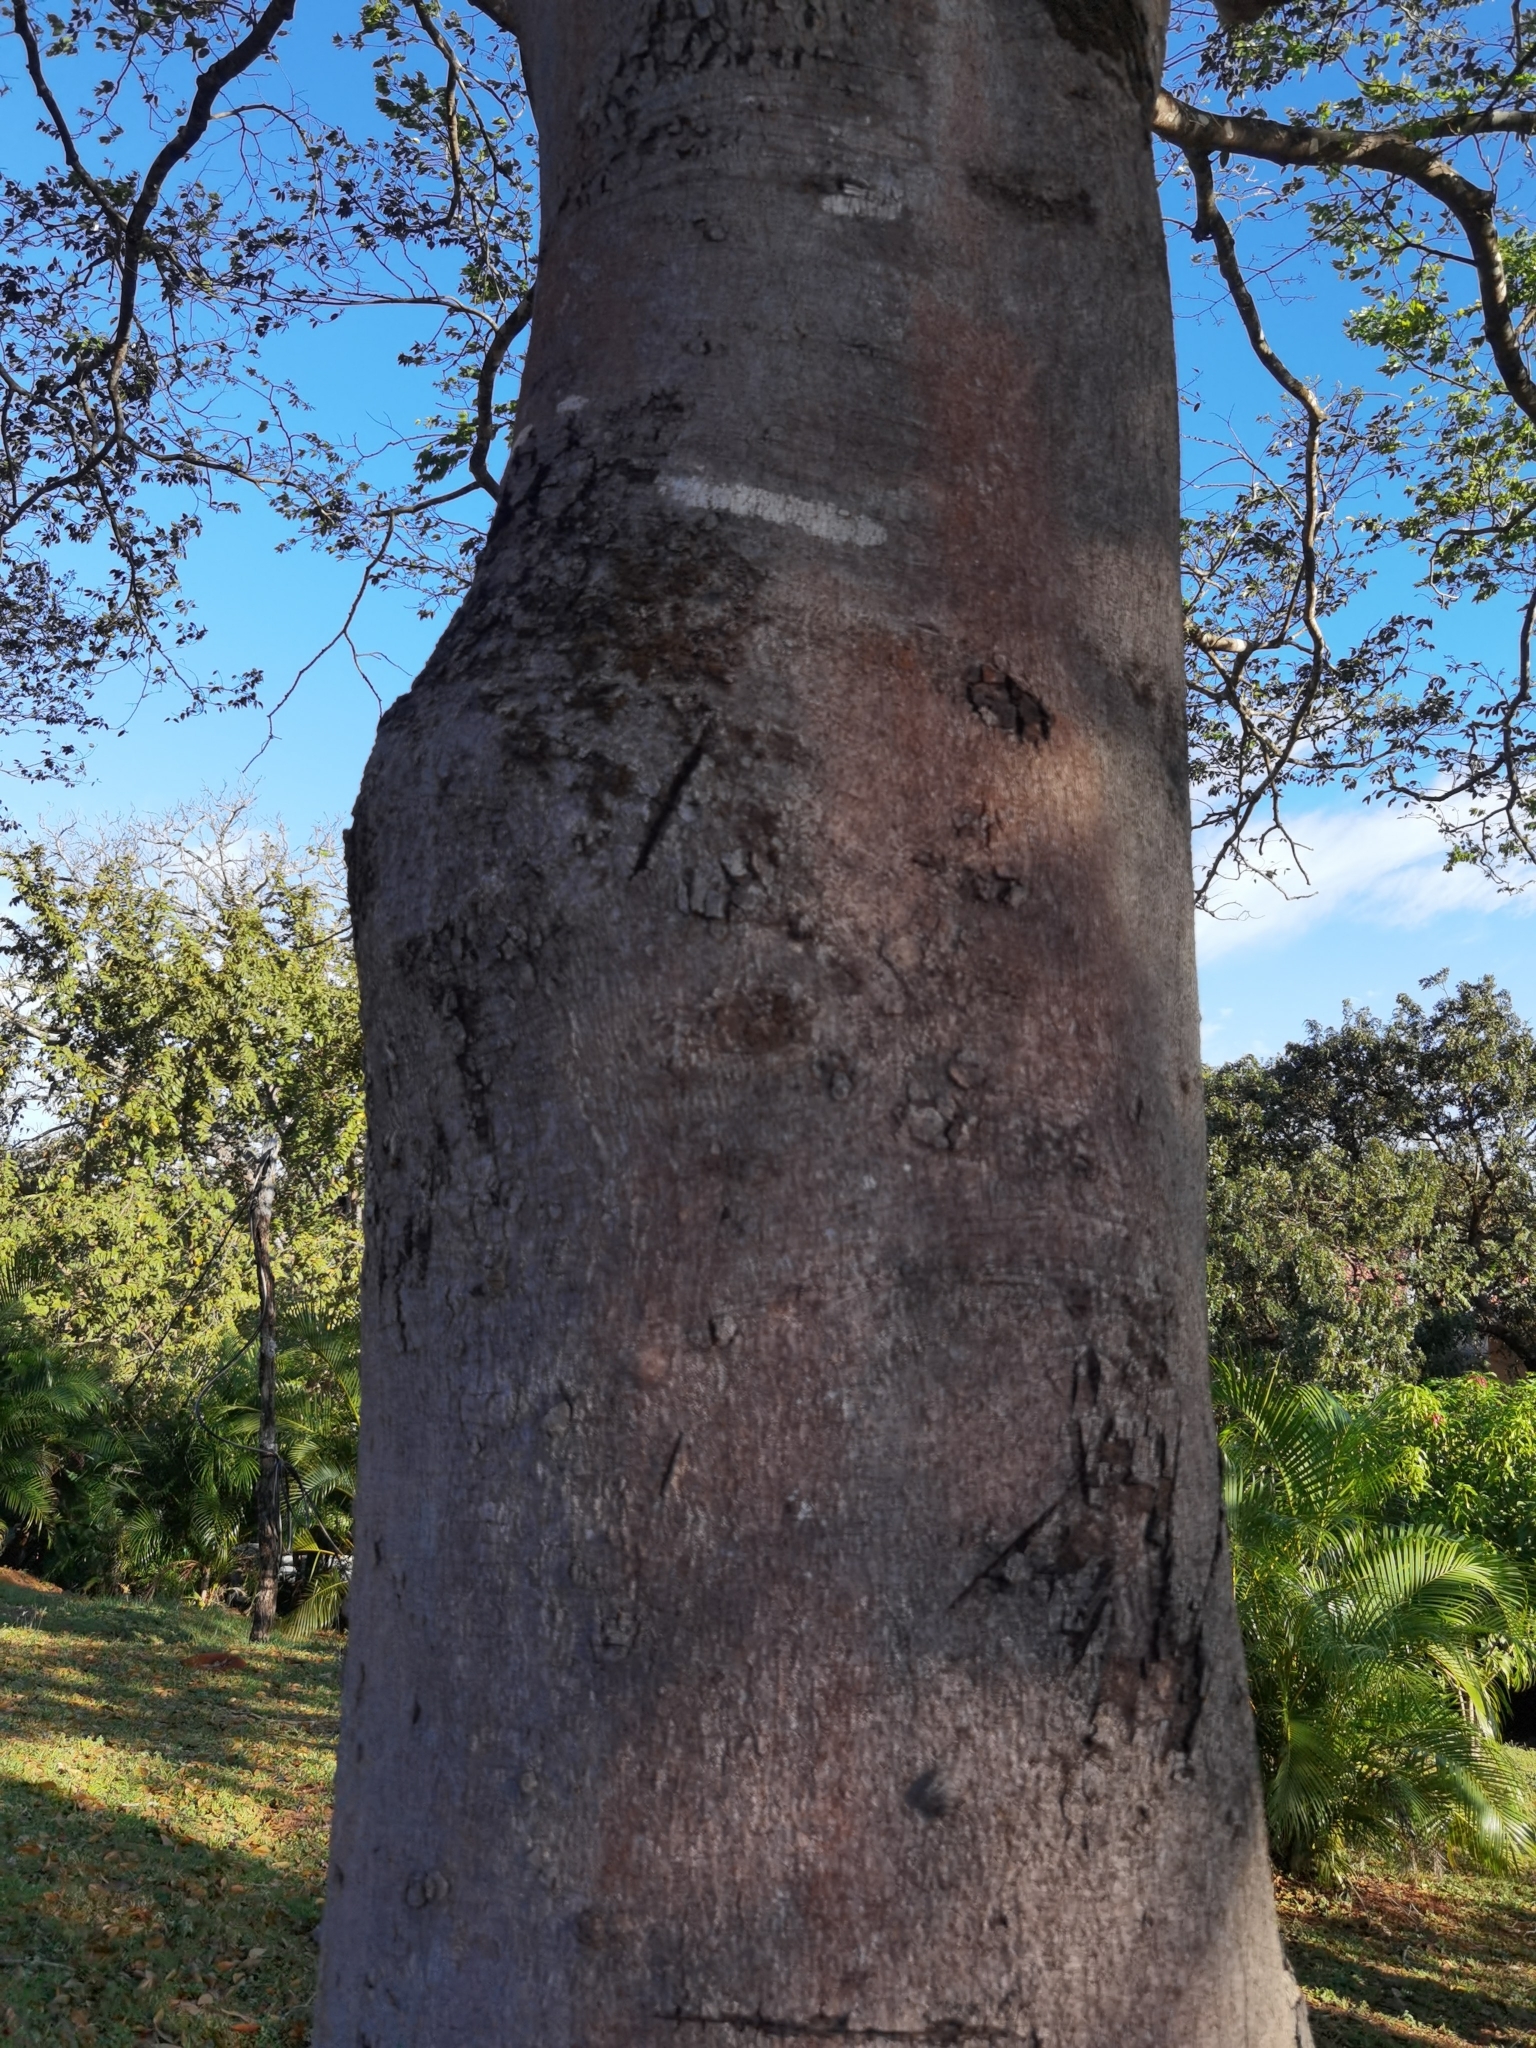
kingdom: Plantae
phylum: Tracheophyta
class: Magnoliopsida
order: Fabales
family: Fabaceae
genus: Hymenaea
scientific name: Hymenaea courbaril
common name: Brazilian copal
